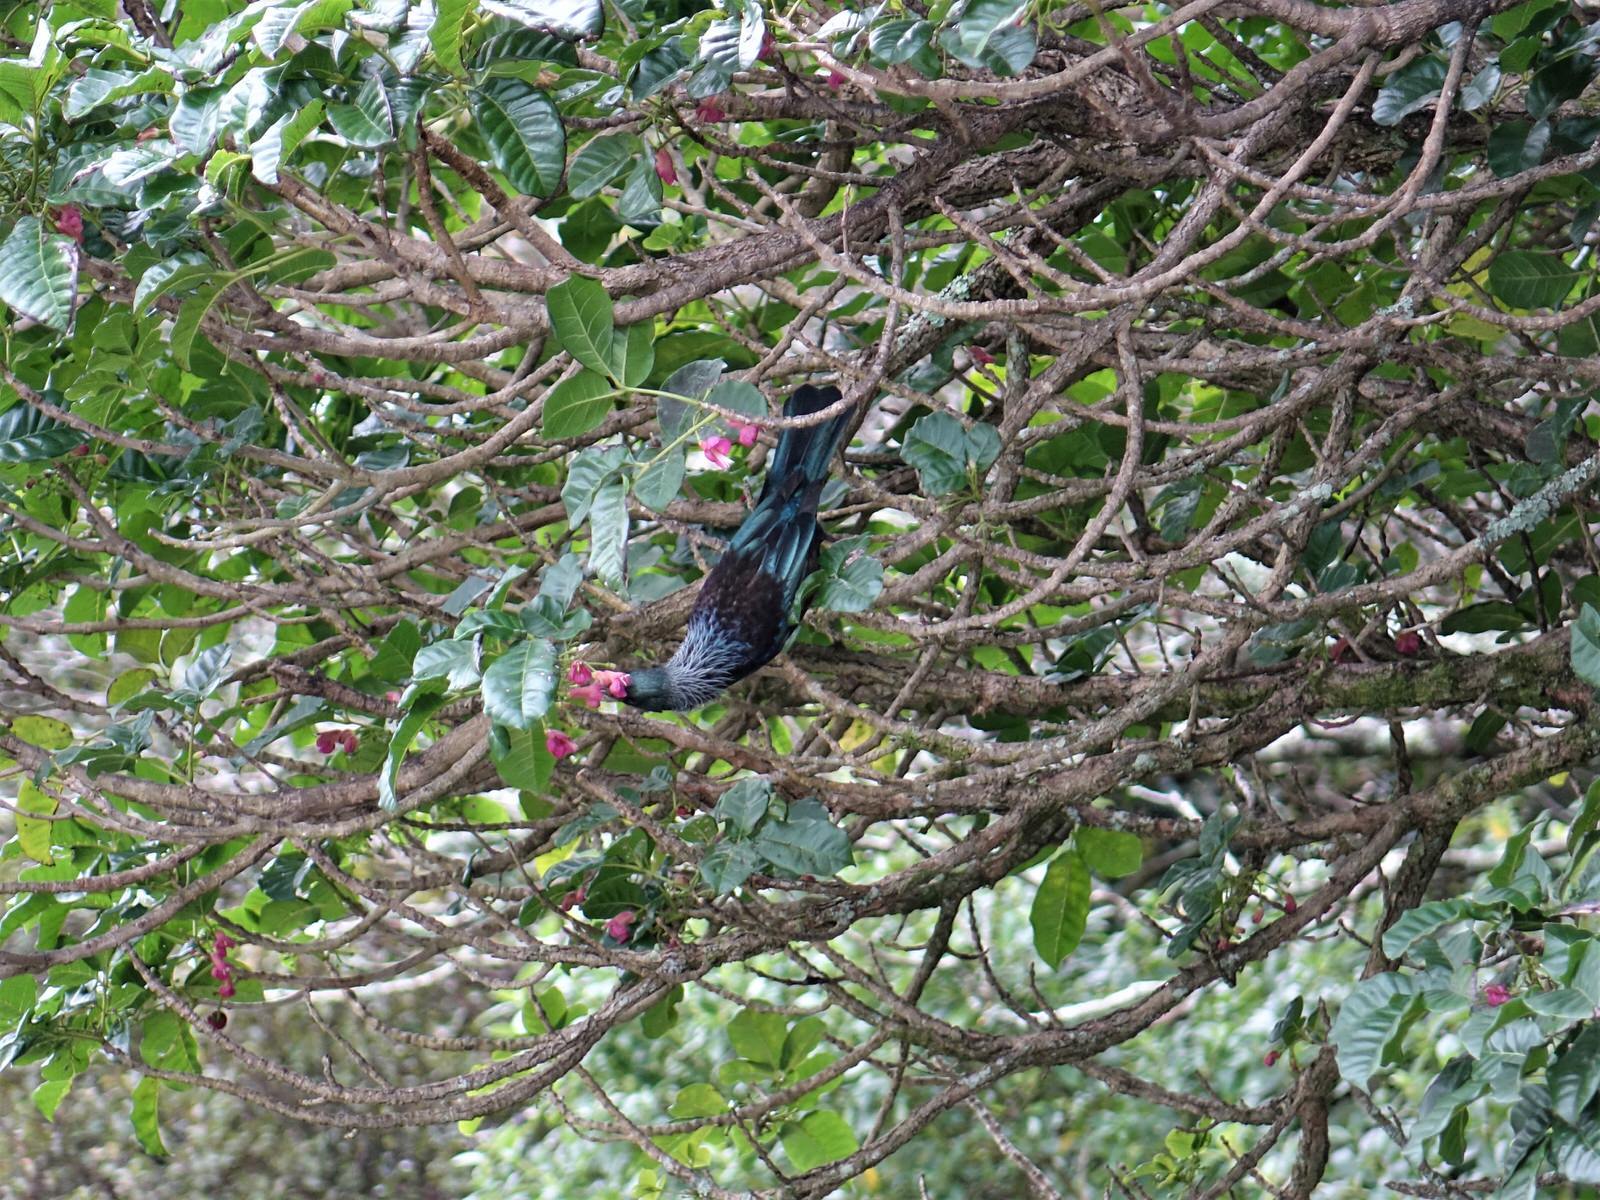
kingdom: Animalia
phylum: Chordata
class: Aves
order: Passeriformes
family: Meliphagidae
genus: Prosthemadera
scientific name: Prosthemadera novaeseelandiae
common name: Tui
